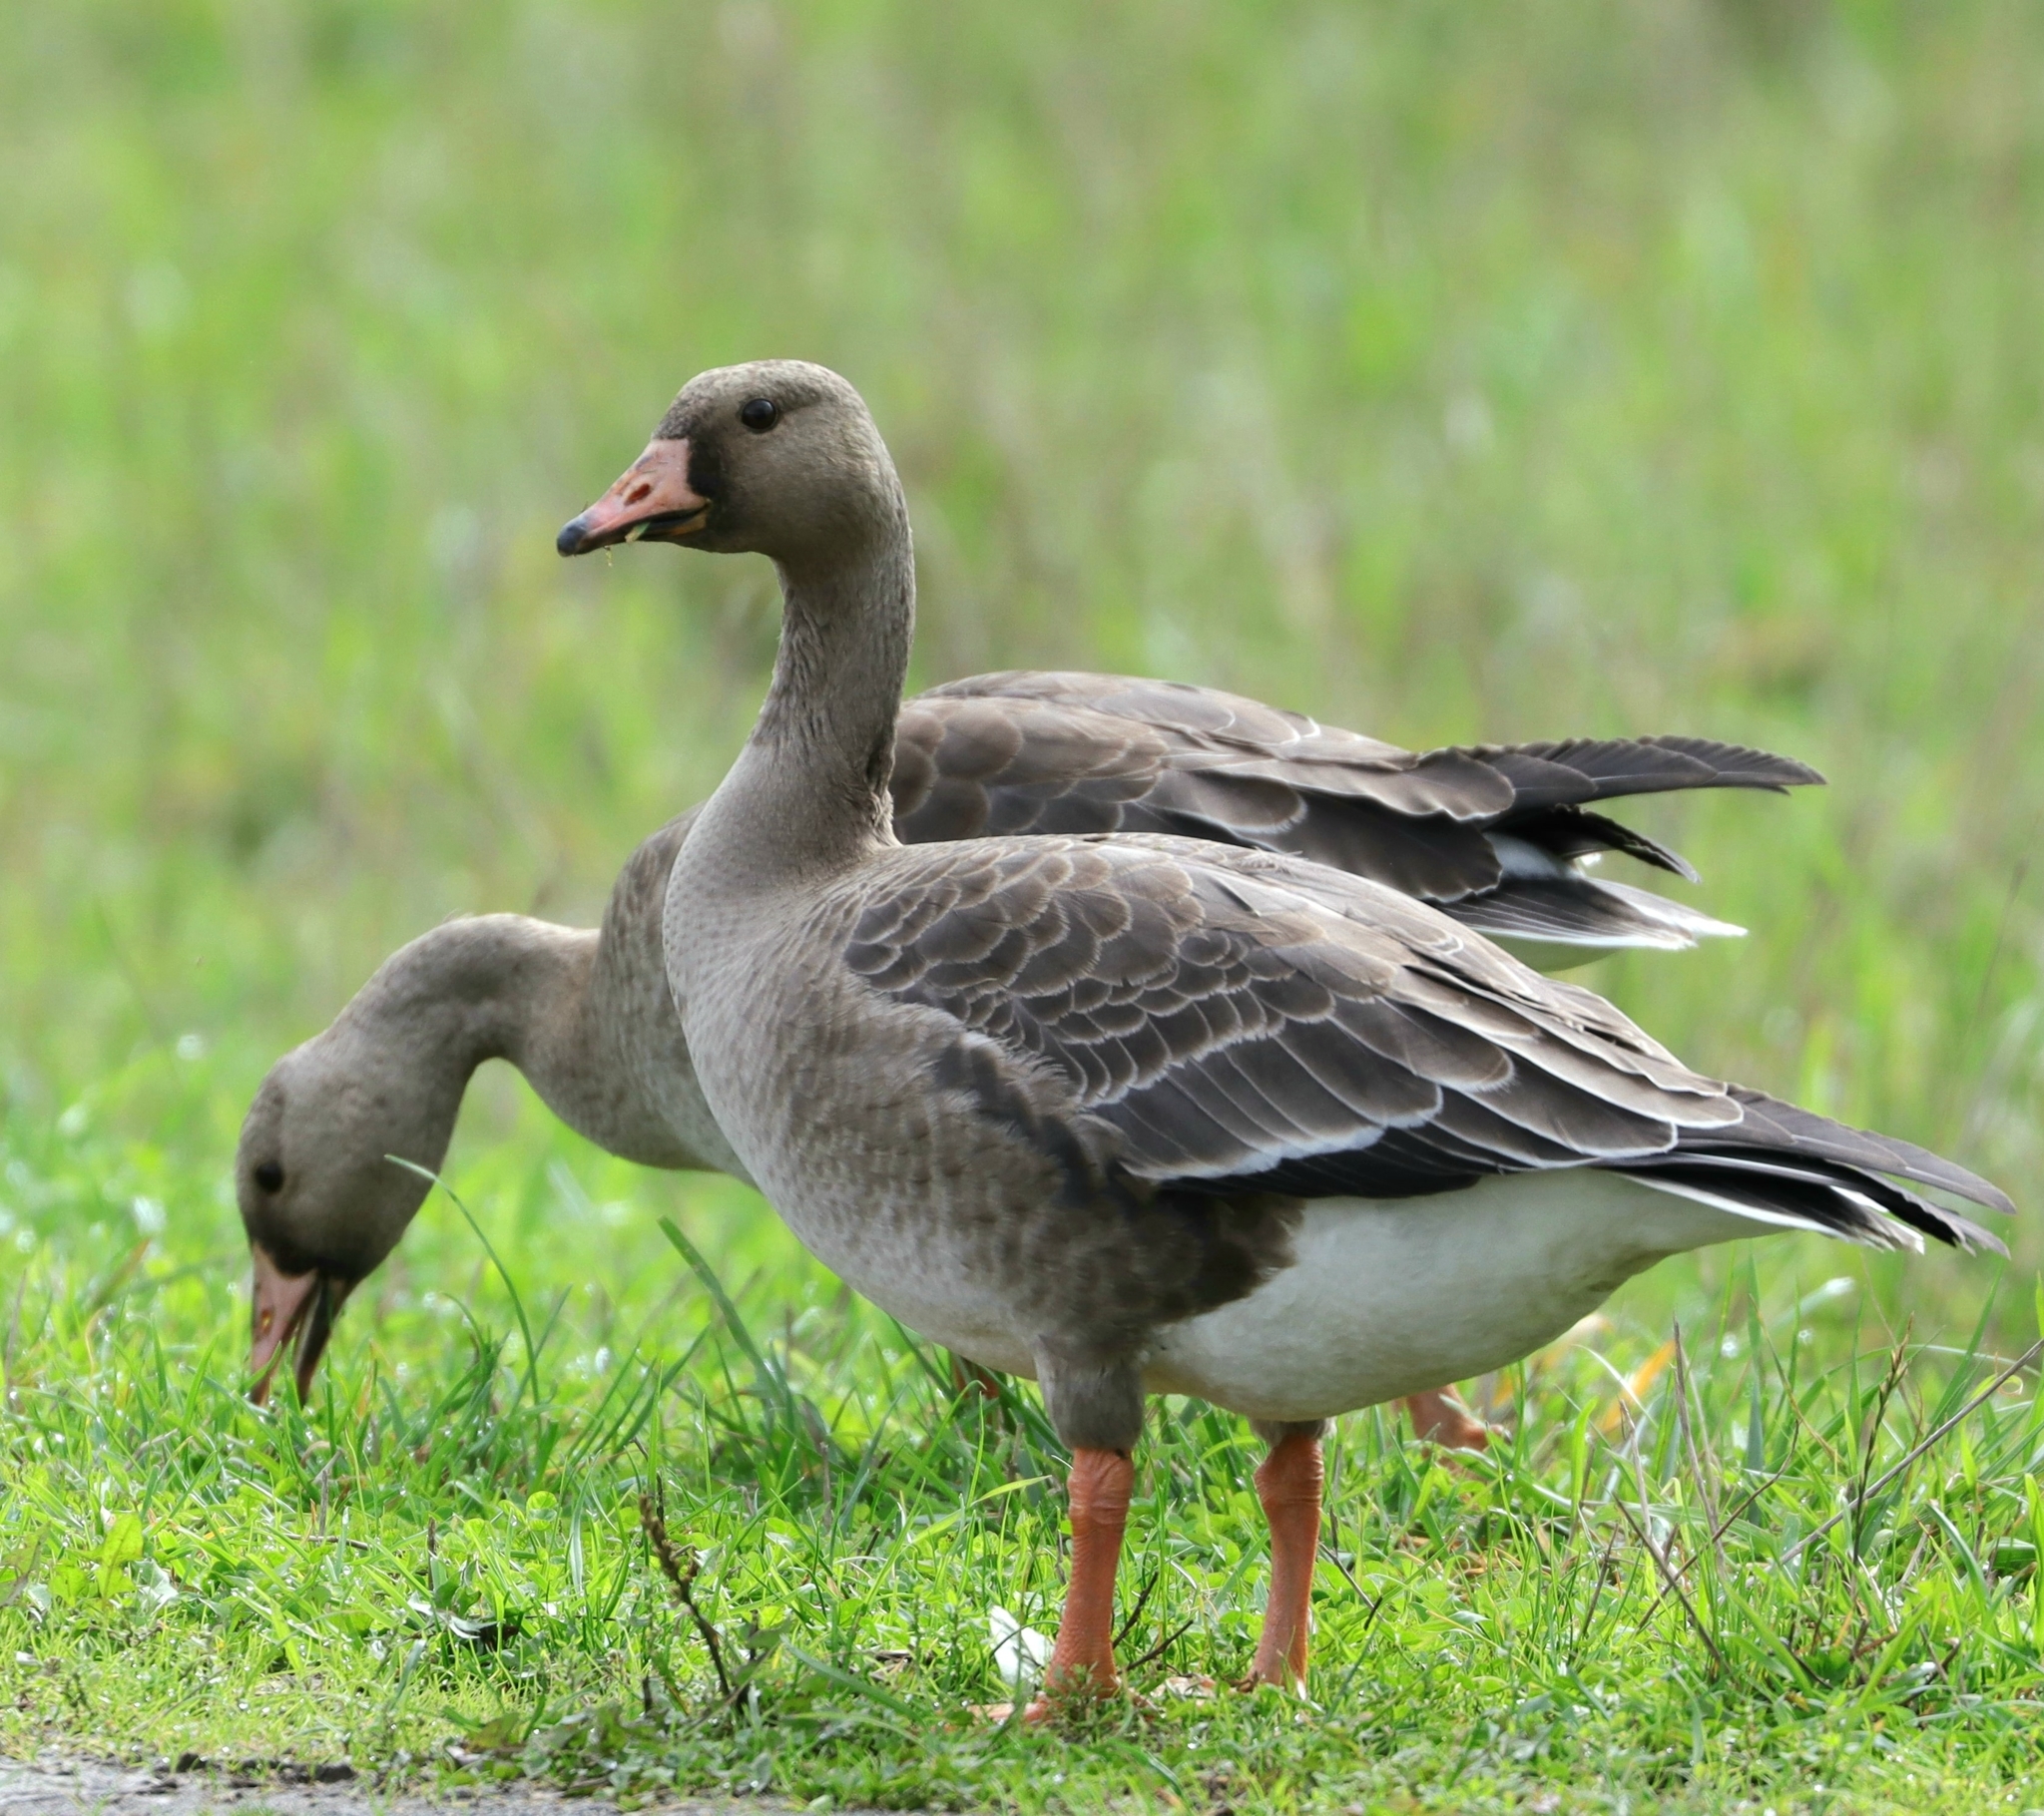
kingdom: Animalia
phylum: Chordata
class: Aves
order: Anseriformes
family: Anatidae
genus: Anser
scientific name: Anser albifrons
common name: Greater white-fronted goose
